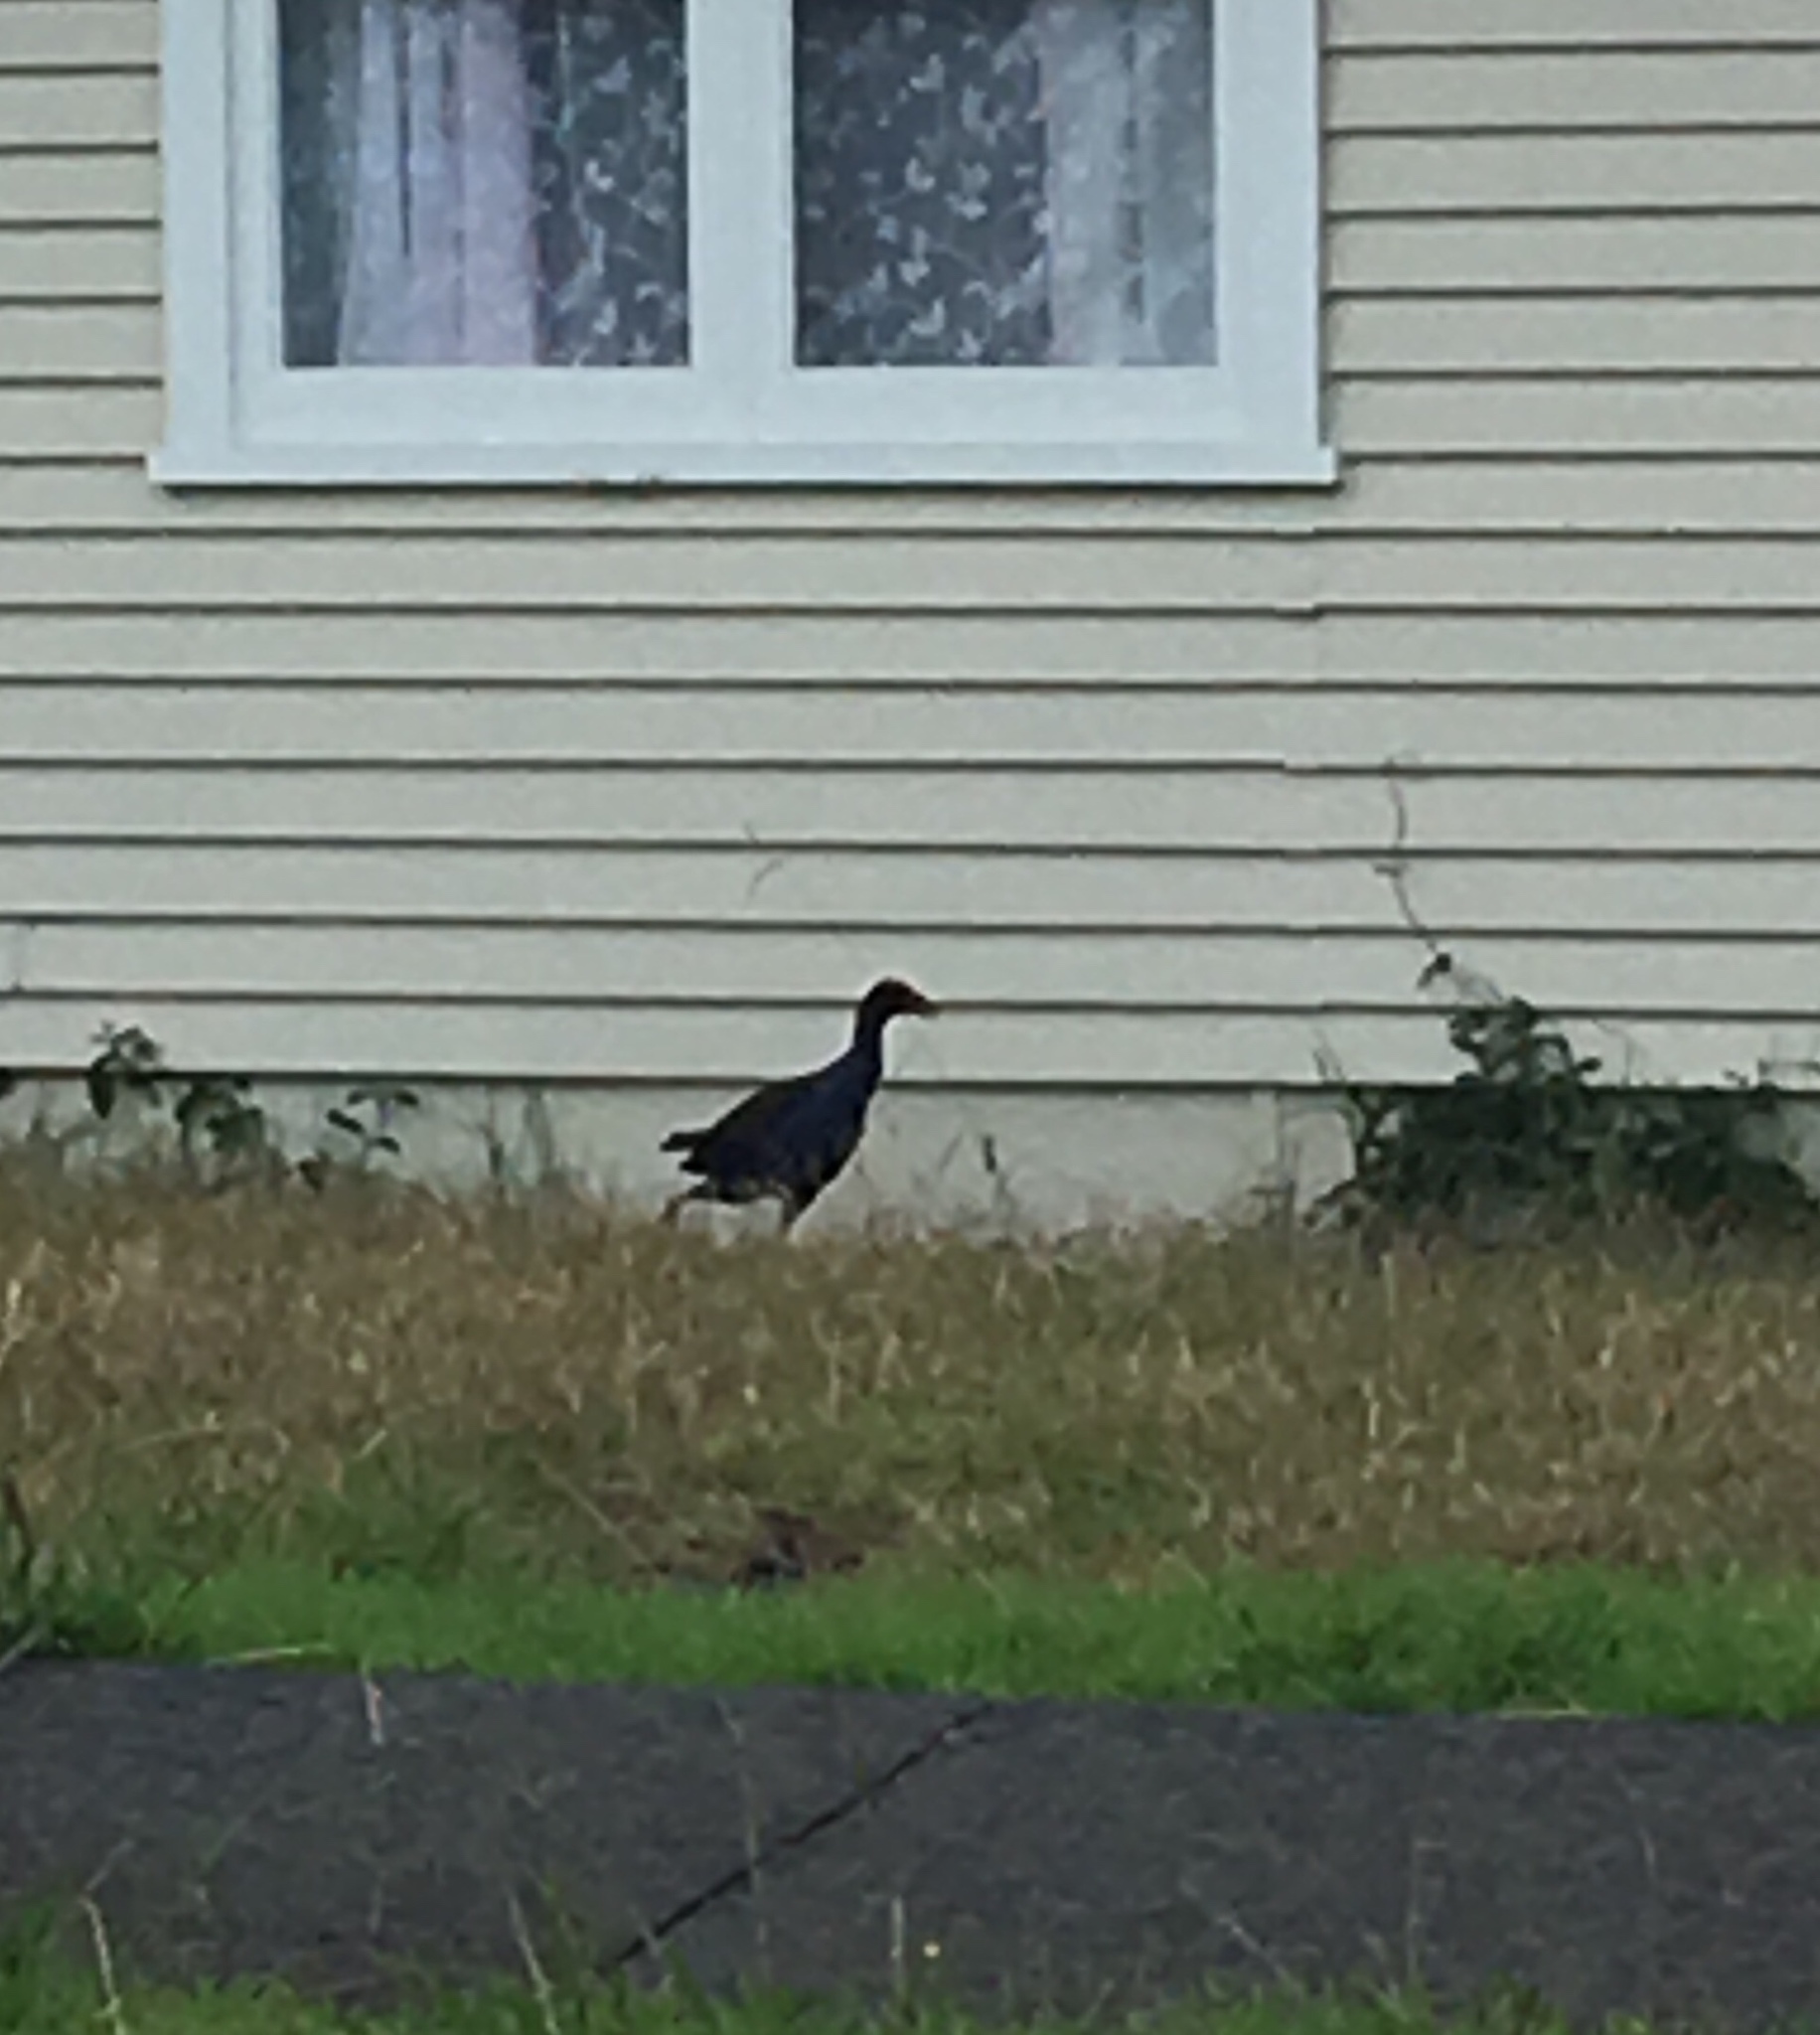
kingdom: Animalia
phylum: Chordata
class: Aves
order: Gruiformes
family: Rallidae
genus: Porphyrio
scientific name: Porphyrio melanotus
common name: Australasian swamphen
